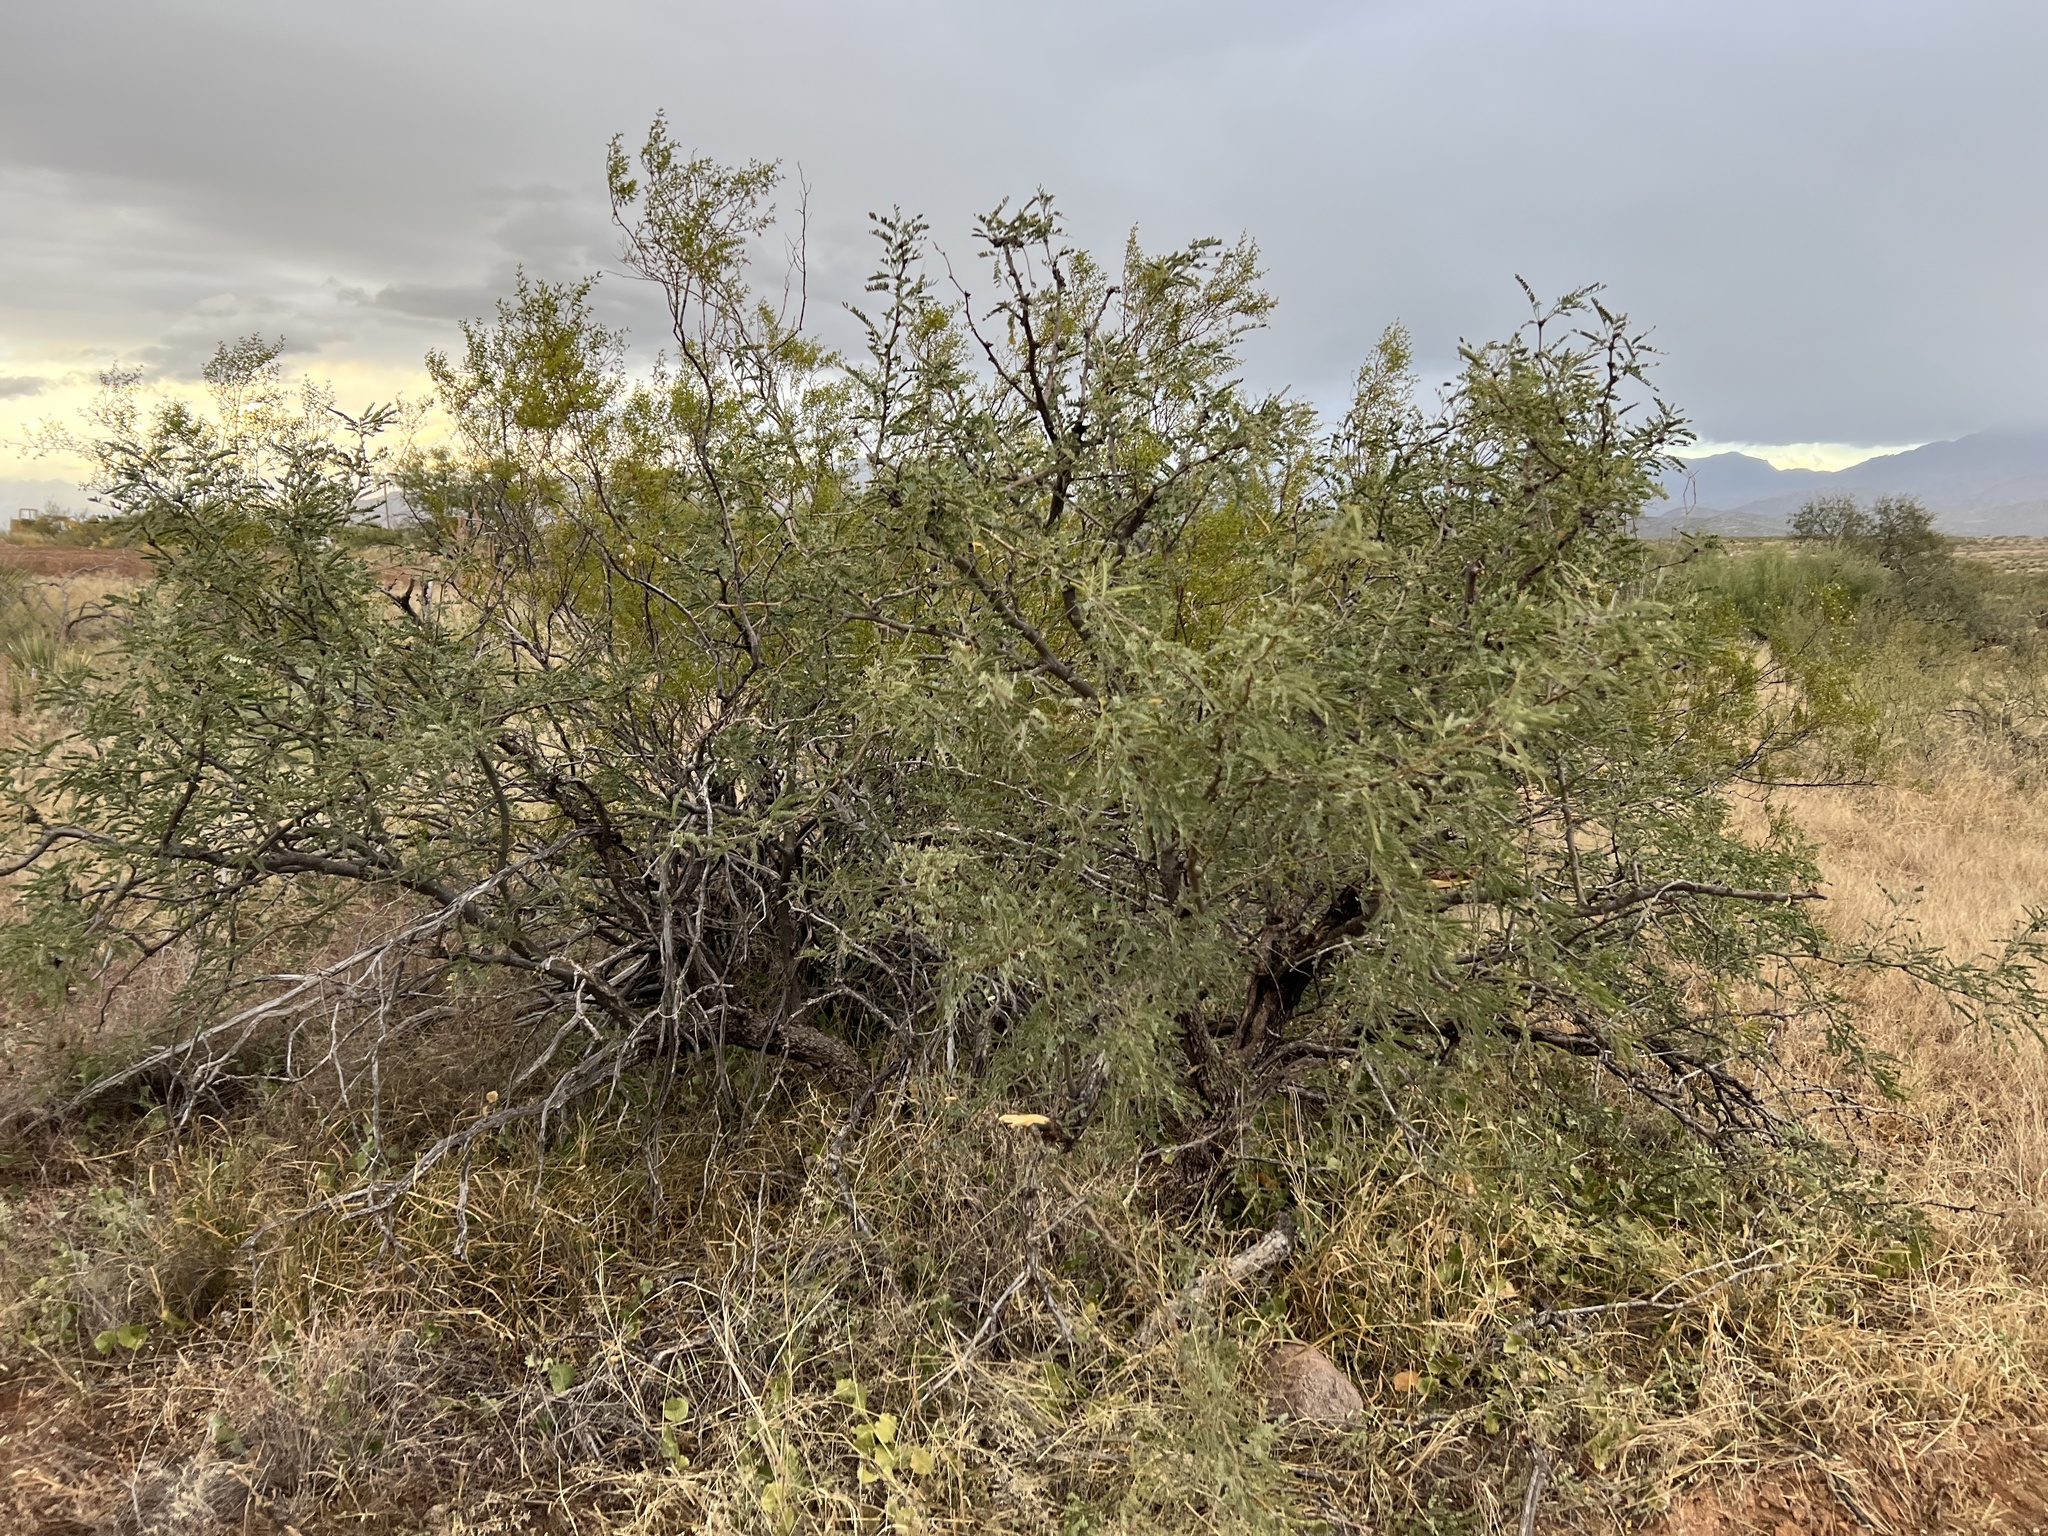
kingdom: Plantae
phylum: Tracheophyta
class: Magnoliopsida
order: Fabales
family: Fabaceae
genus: Prosopis
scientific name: Prosopis velutina
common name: Velvet mesquite
